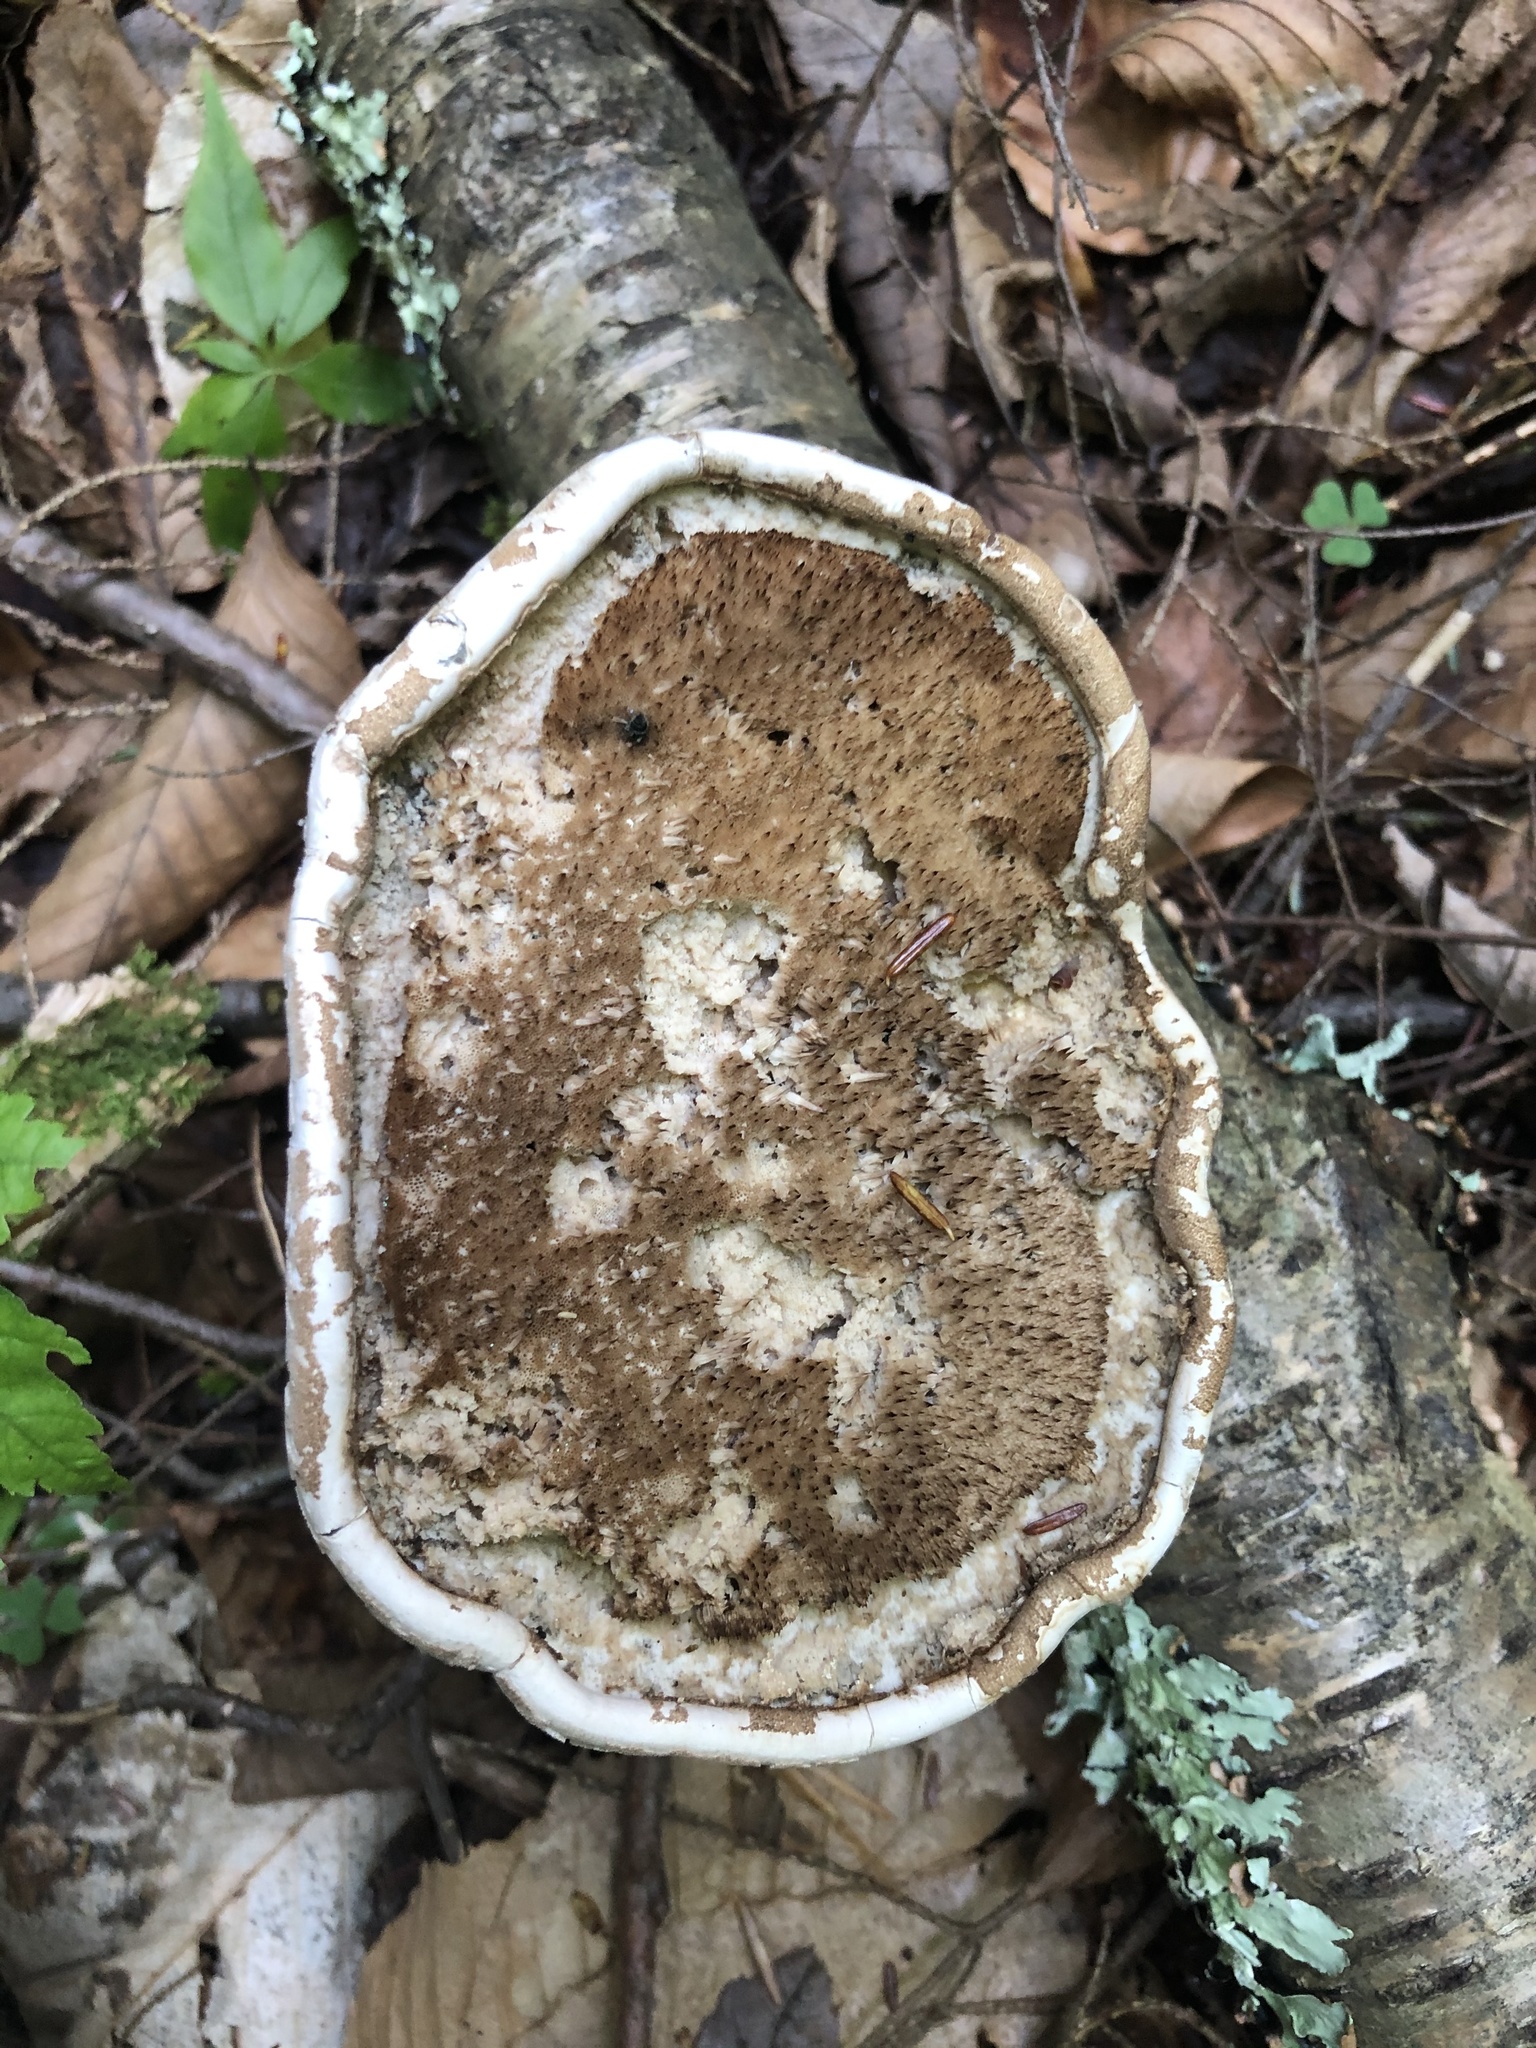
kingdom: Fungi
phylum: Basidiomycota
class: Agaricomycetes
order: Polyporales
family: Fomitopsidaceae
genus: Fomitopsis
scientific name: Fomitopsis betulina
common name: Birch polypore
